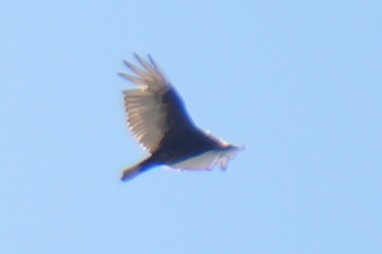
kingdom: Animalia
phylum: Chordata
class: Aves
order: Accipitriformes
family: Cathartidae
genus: Cathartes
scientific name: Cathartes aura
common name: Turkey vulture
